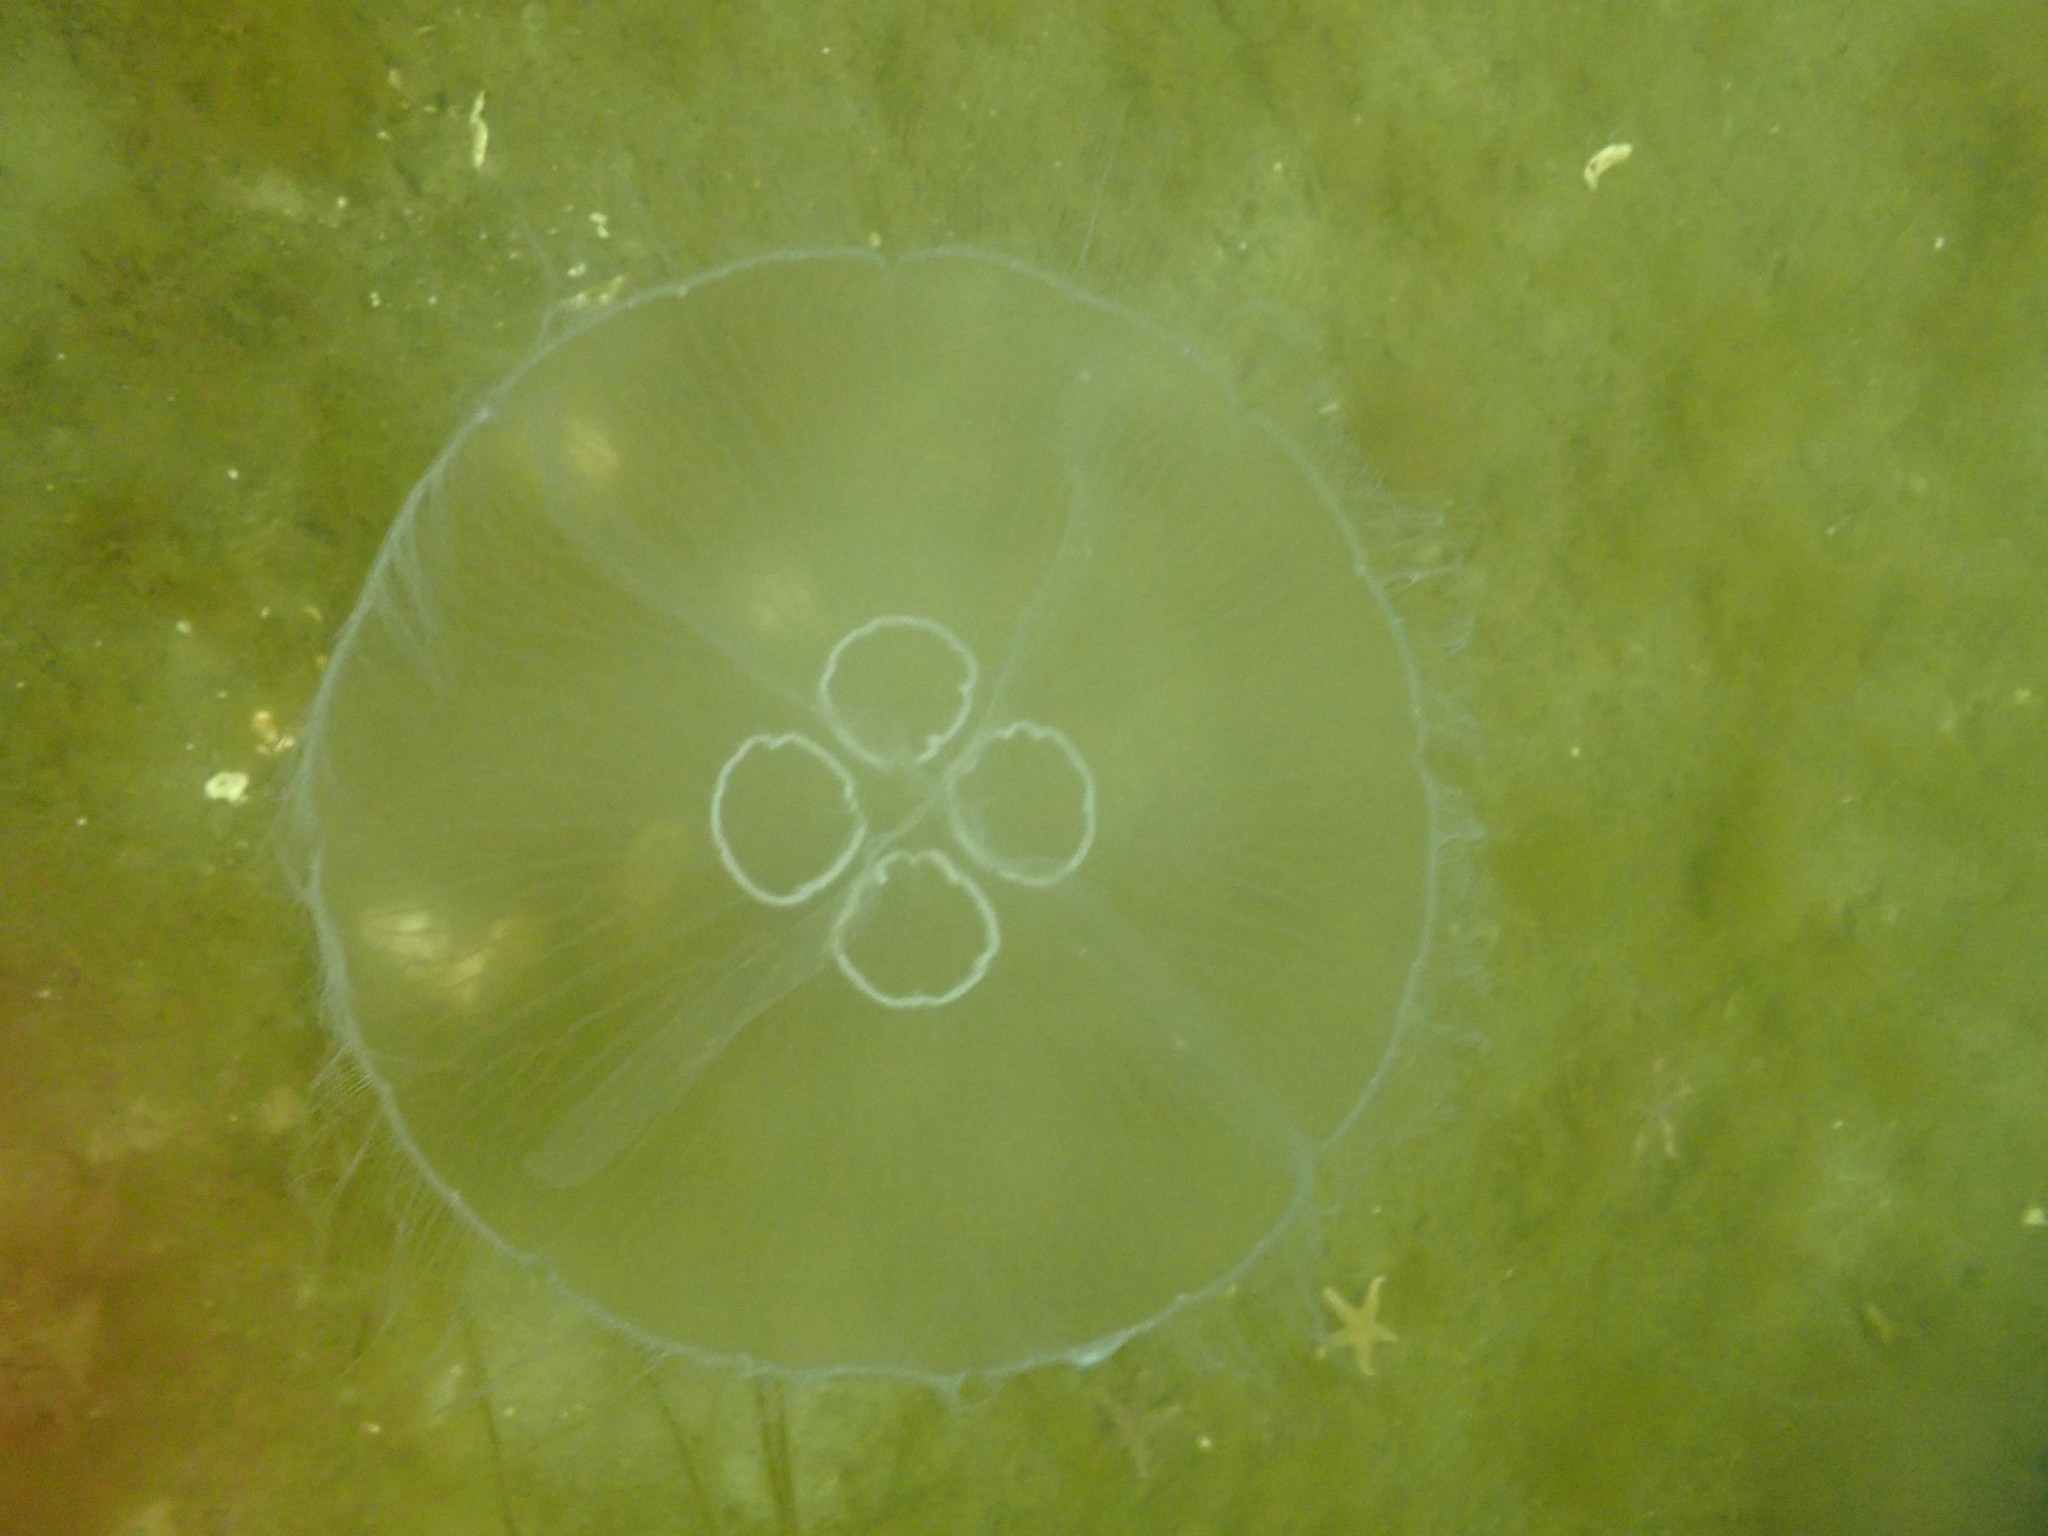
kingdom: Animalia
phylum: Cnidaria
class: Scyphozoa
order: Semaeostomeae
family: Ulmaridae
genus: Aurelia
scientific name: Aurelia aurita
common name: Moon jellyfish
